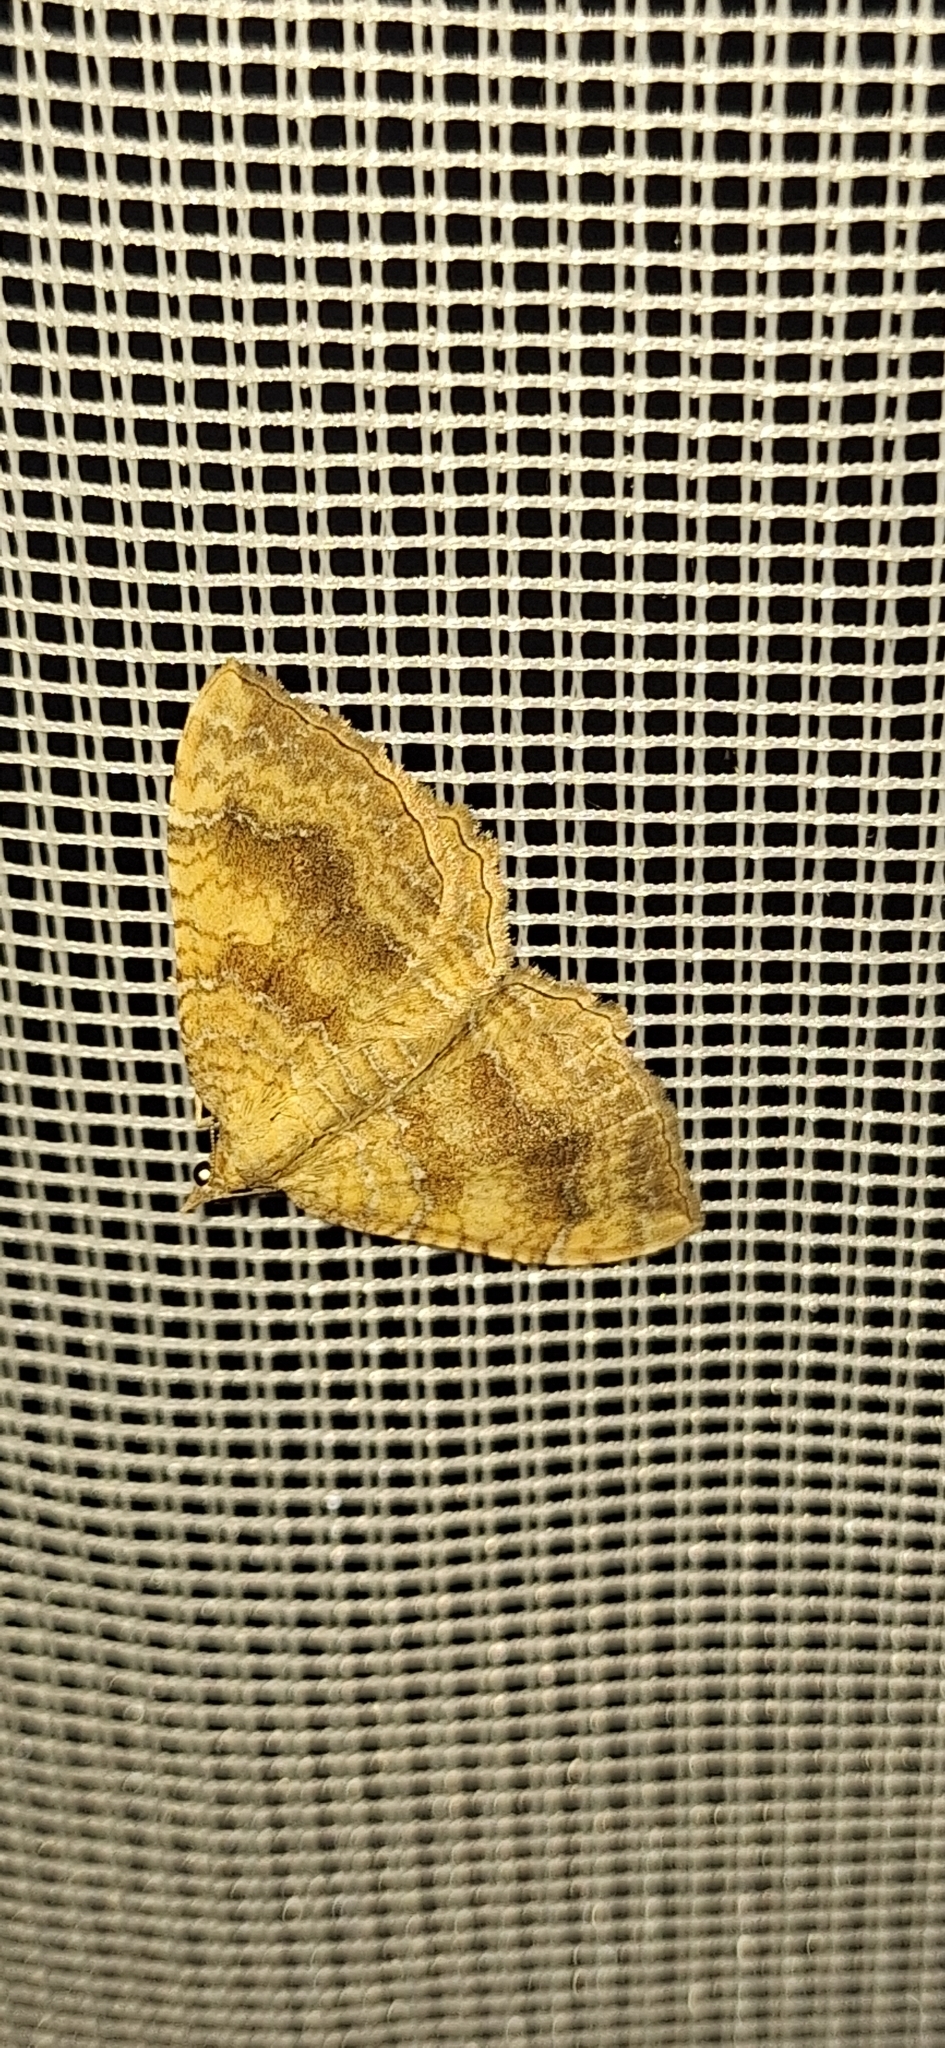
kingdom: Animalia
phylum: Arthropoda
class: Insecta
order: Lepidoptera
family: Geometridae
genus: Camptogramma
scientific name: Camptogramma bilineata
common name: Yellow shell
